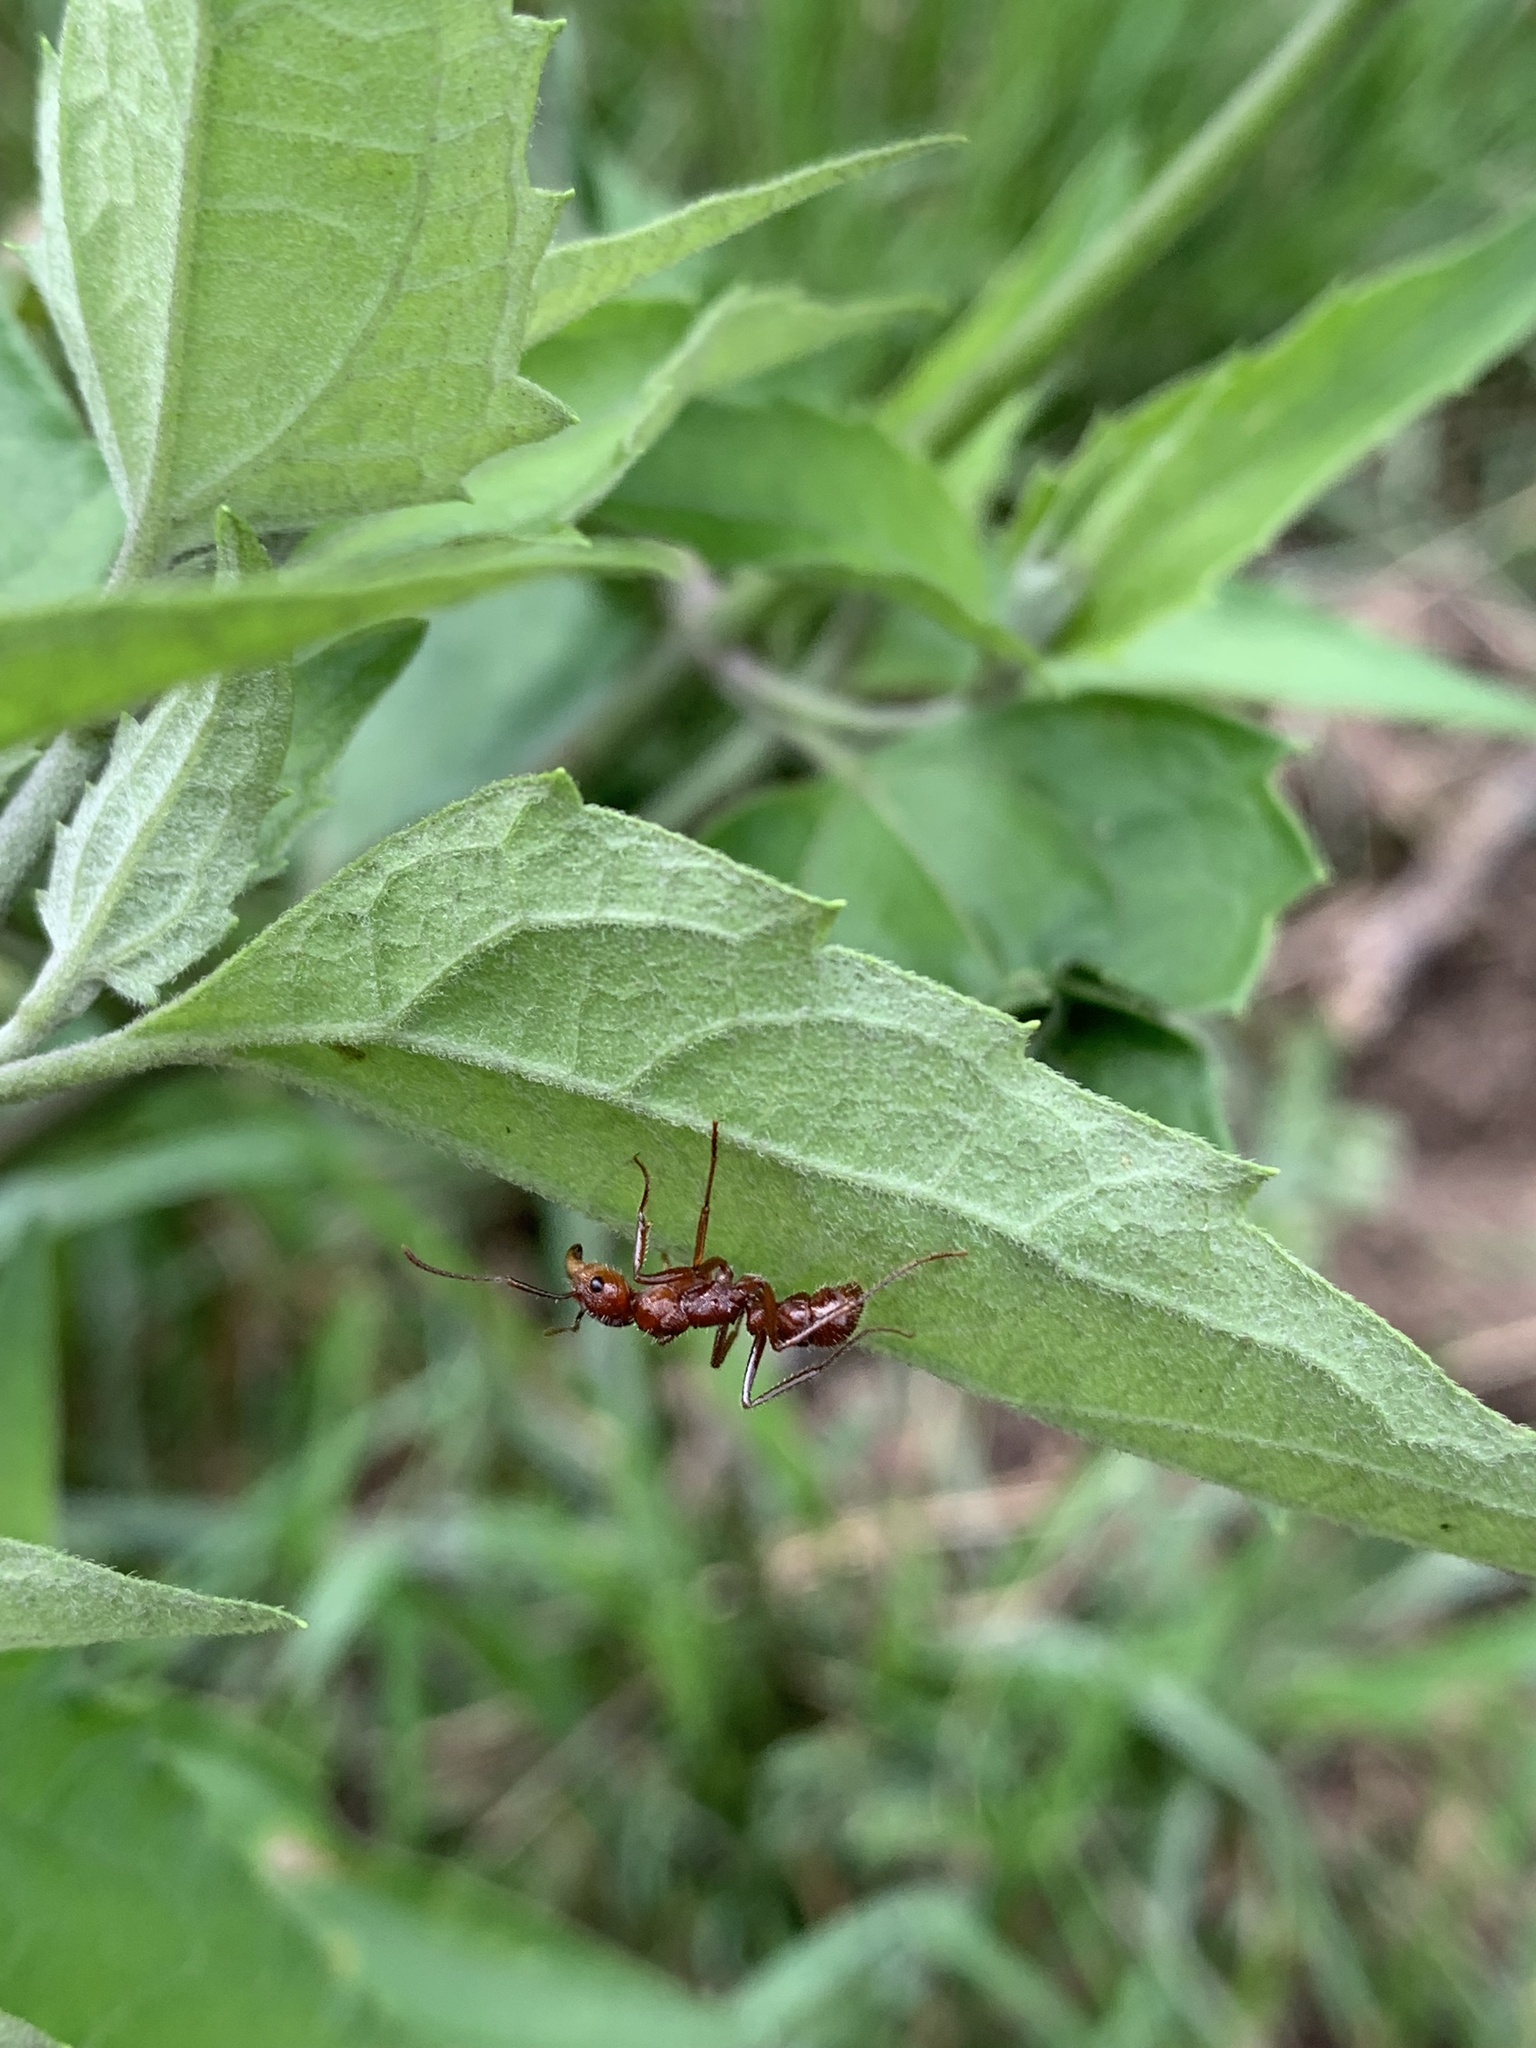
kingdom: Animalia
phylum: Arthropoda
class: Insecta
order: Hymenoptera
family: Formicidae
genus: Ectatomma
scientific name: Ectatomma tuberculatum
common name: Ant
